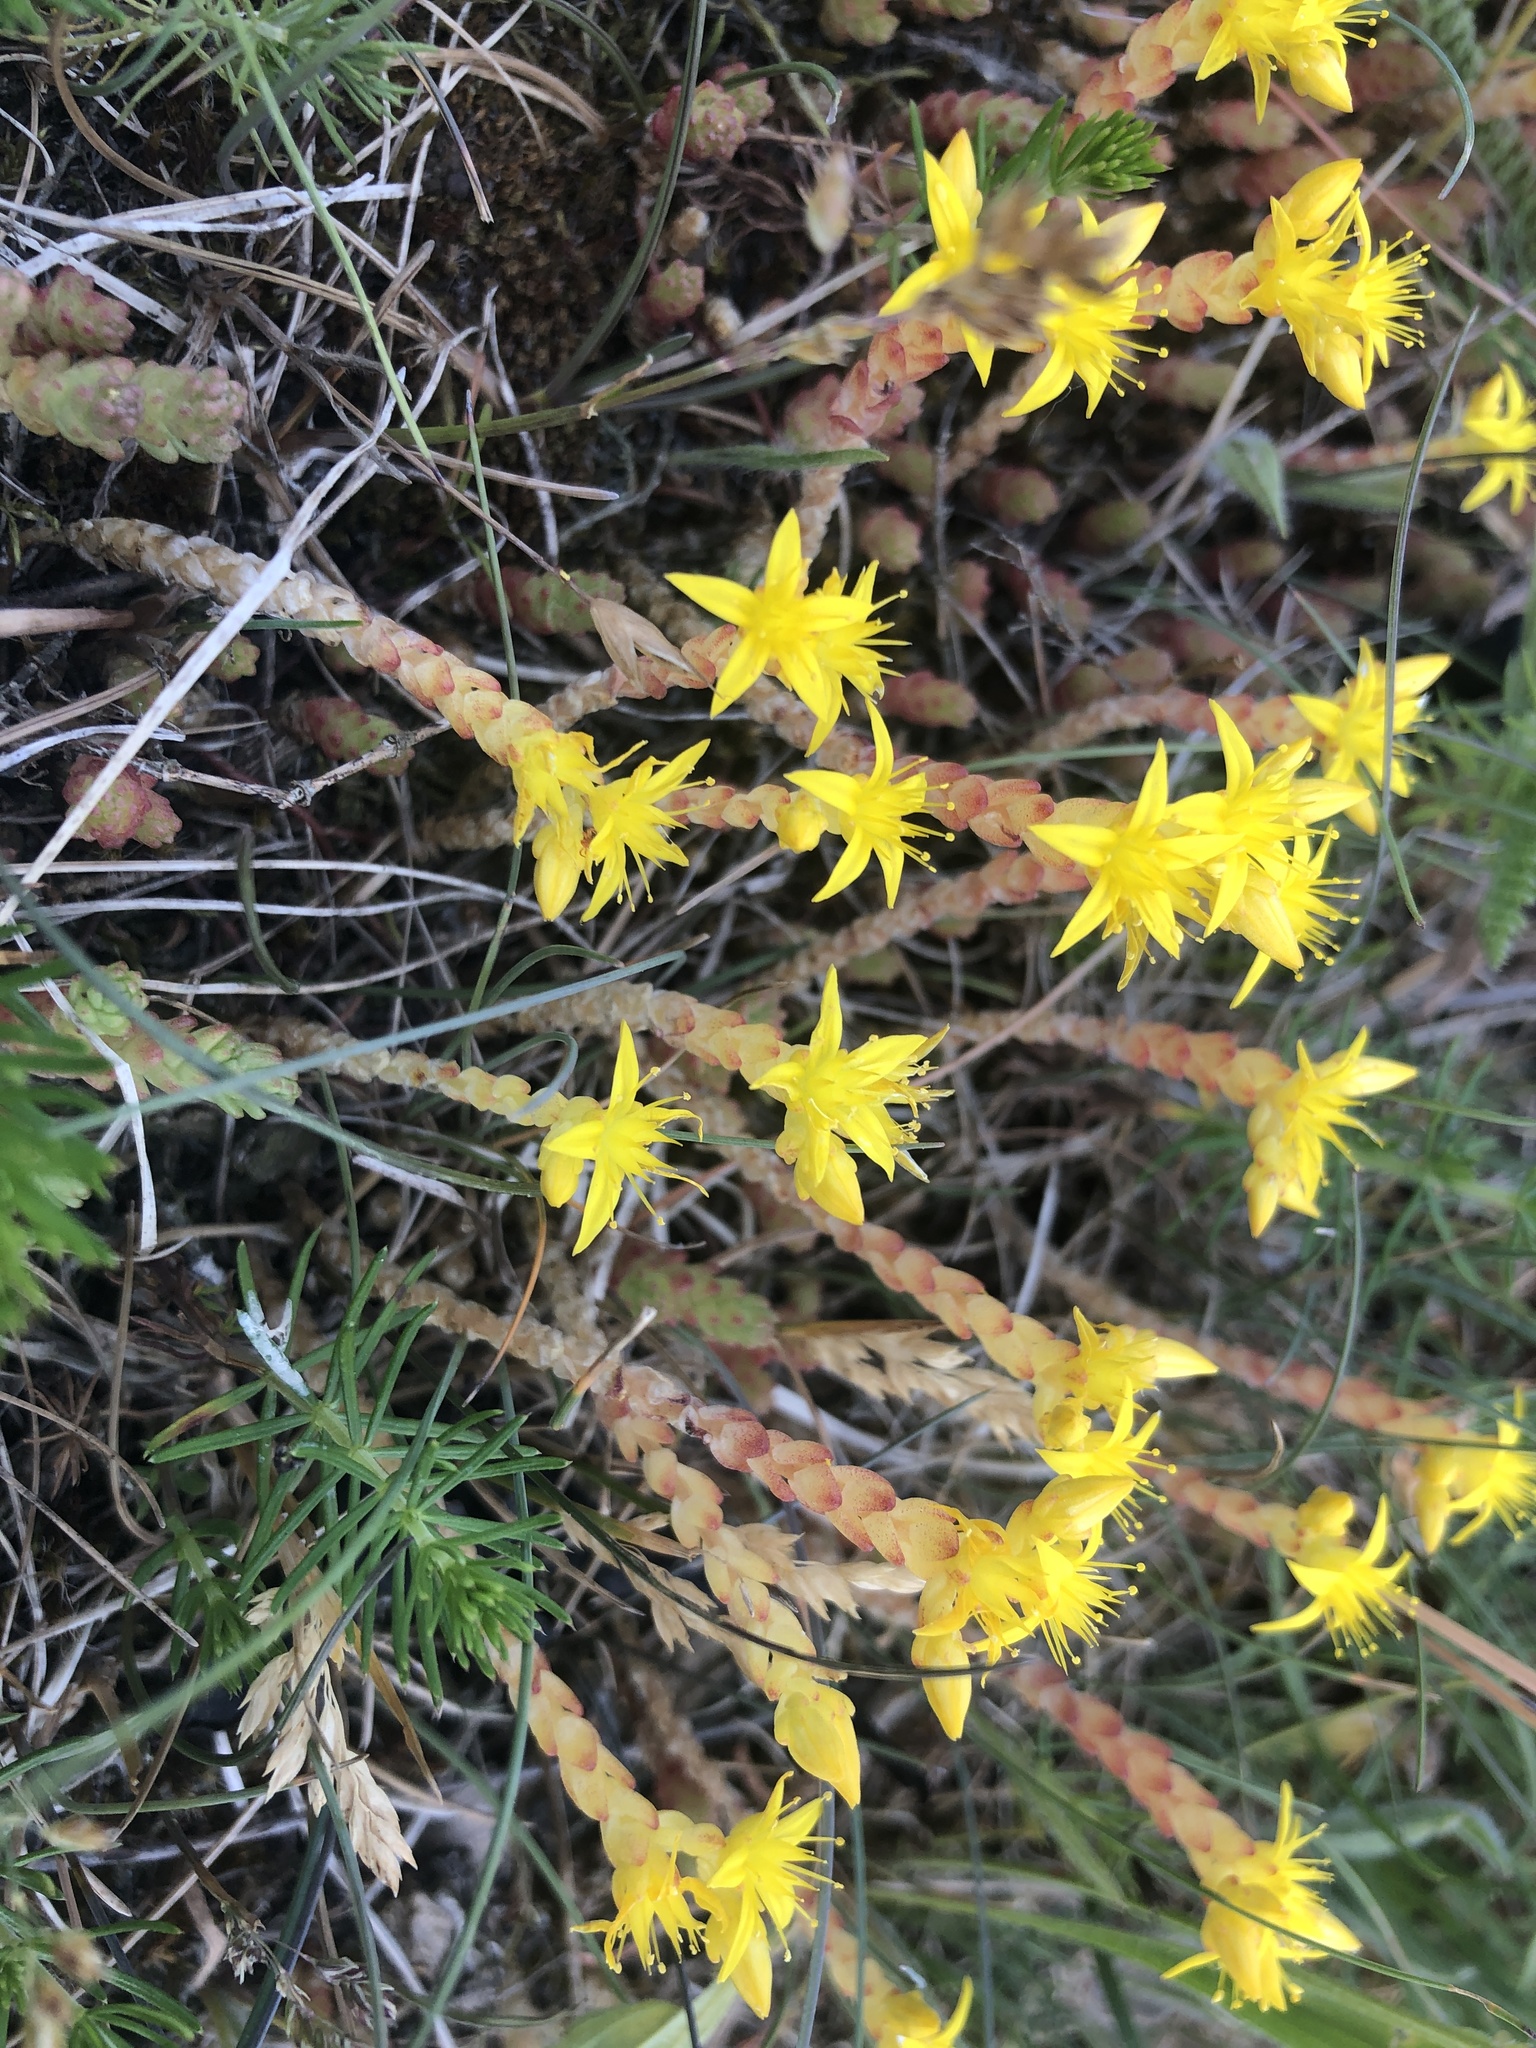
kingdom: Plantae
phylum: Tracheophyta
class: Magnoliopsida
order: Saxifragales
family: Crassulaceae
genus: Sedum
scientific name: Sedum acre
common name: Biting stonecrop
